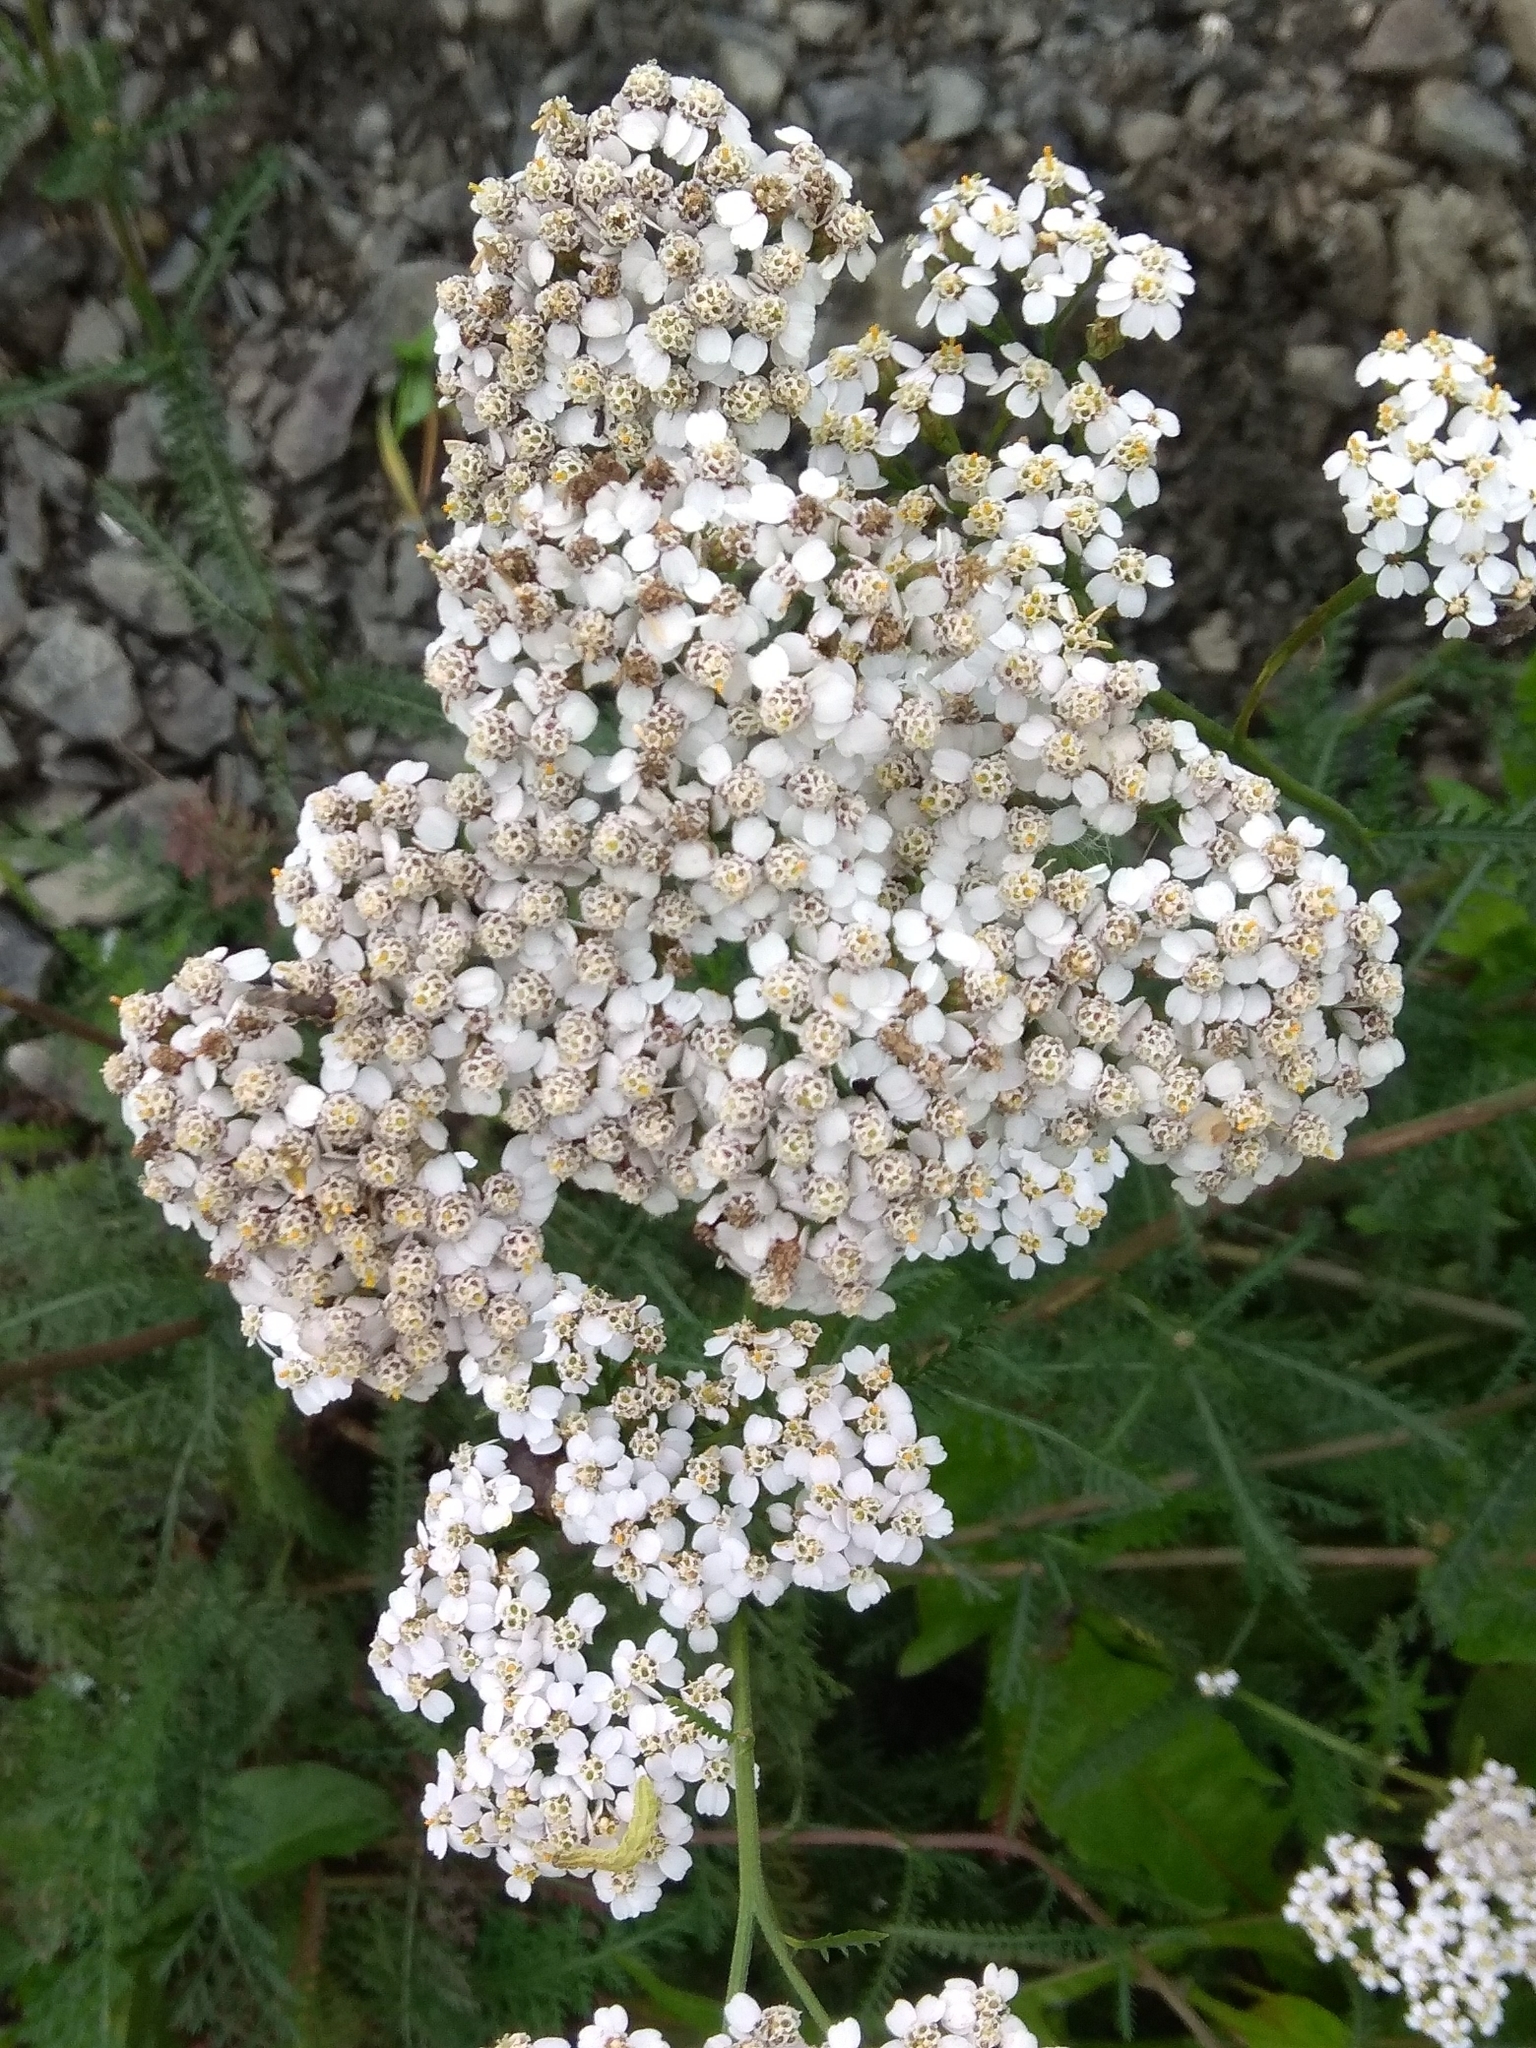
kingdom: Plantae
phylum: Tracheophyta
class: Magnoliopsida
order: Asterales
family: Asteraceae
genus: Achillea
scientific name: Achillea millefolium
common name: Yarrow
